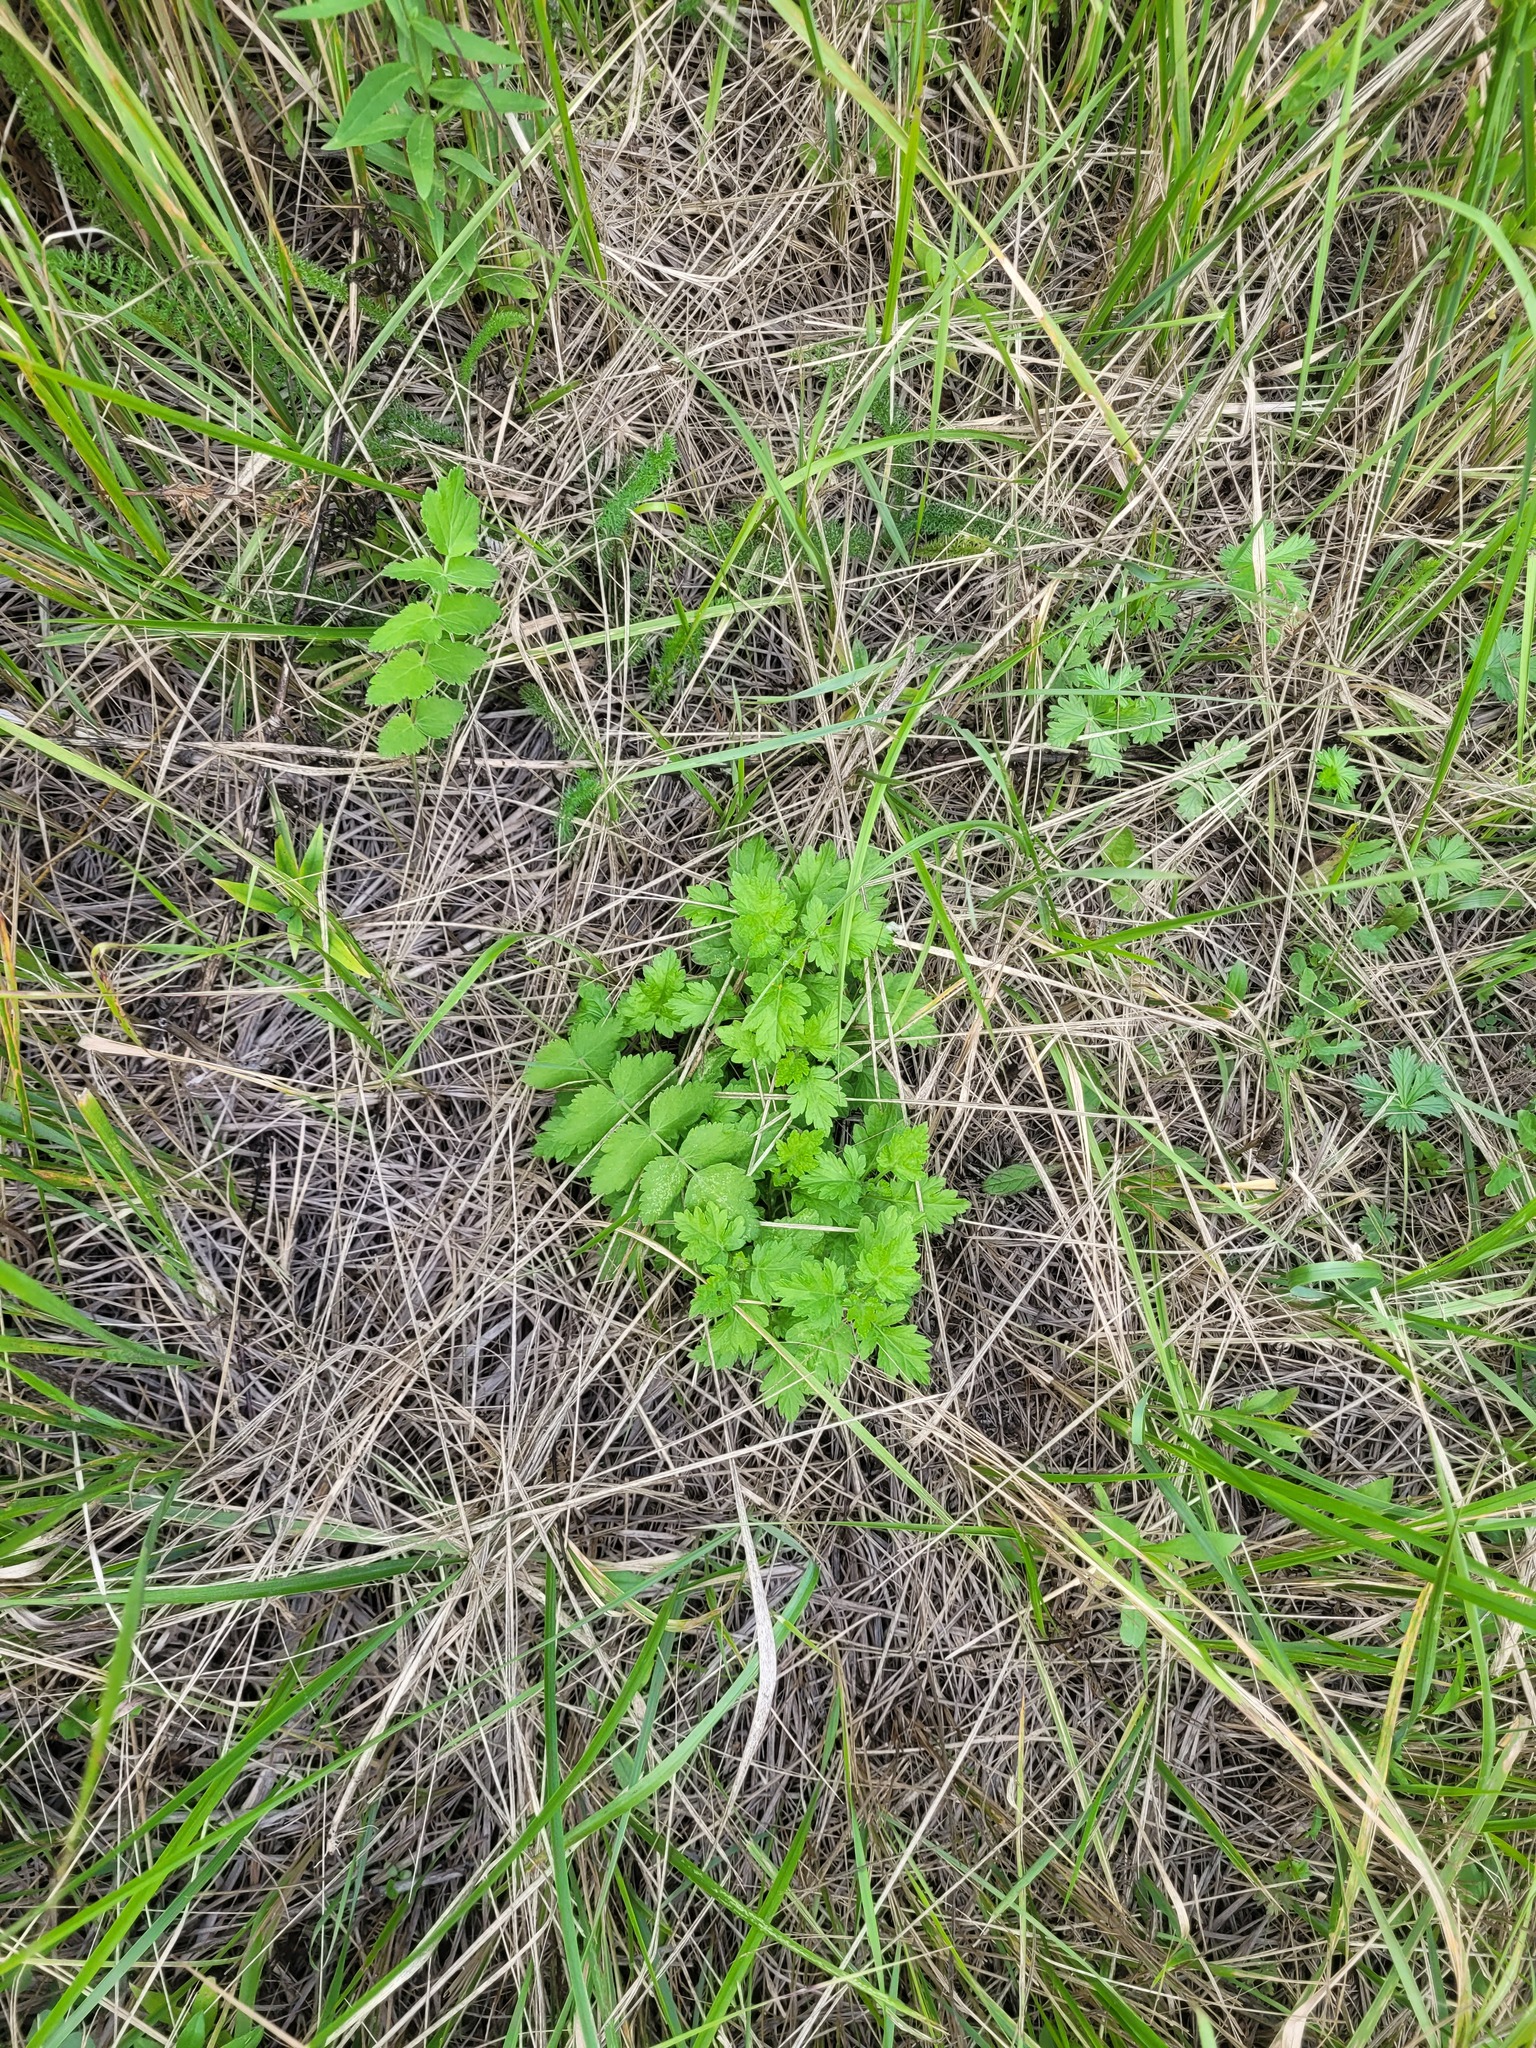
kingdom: Plantae
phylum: Tracheophyta
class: Magnoliopsida
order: Asterales
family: Asteraceae
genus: Artemisia
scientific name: Artemisia vulgaris
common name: Mugwort
